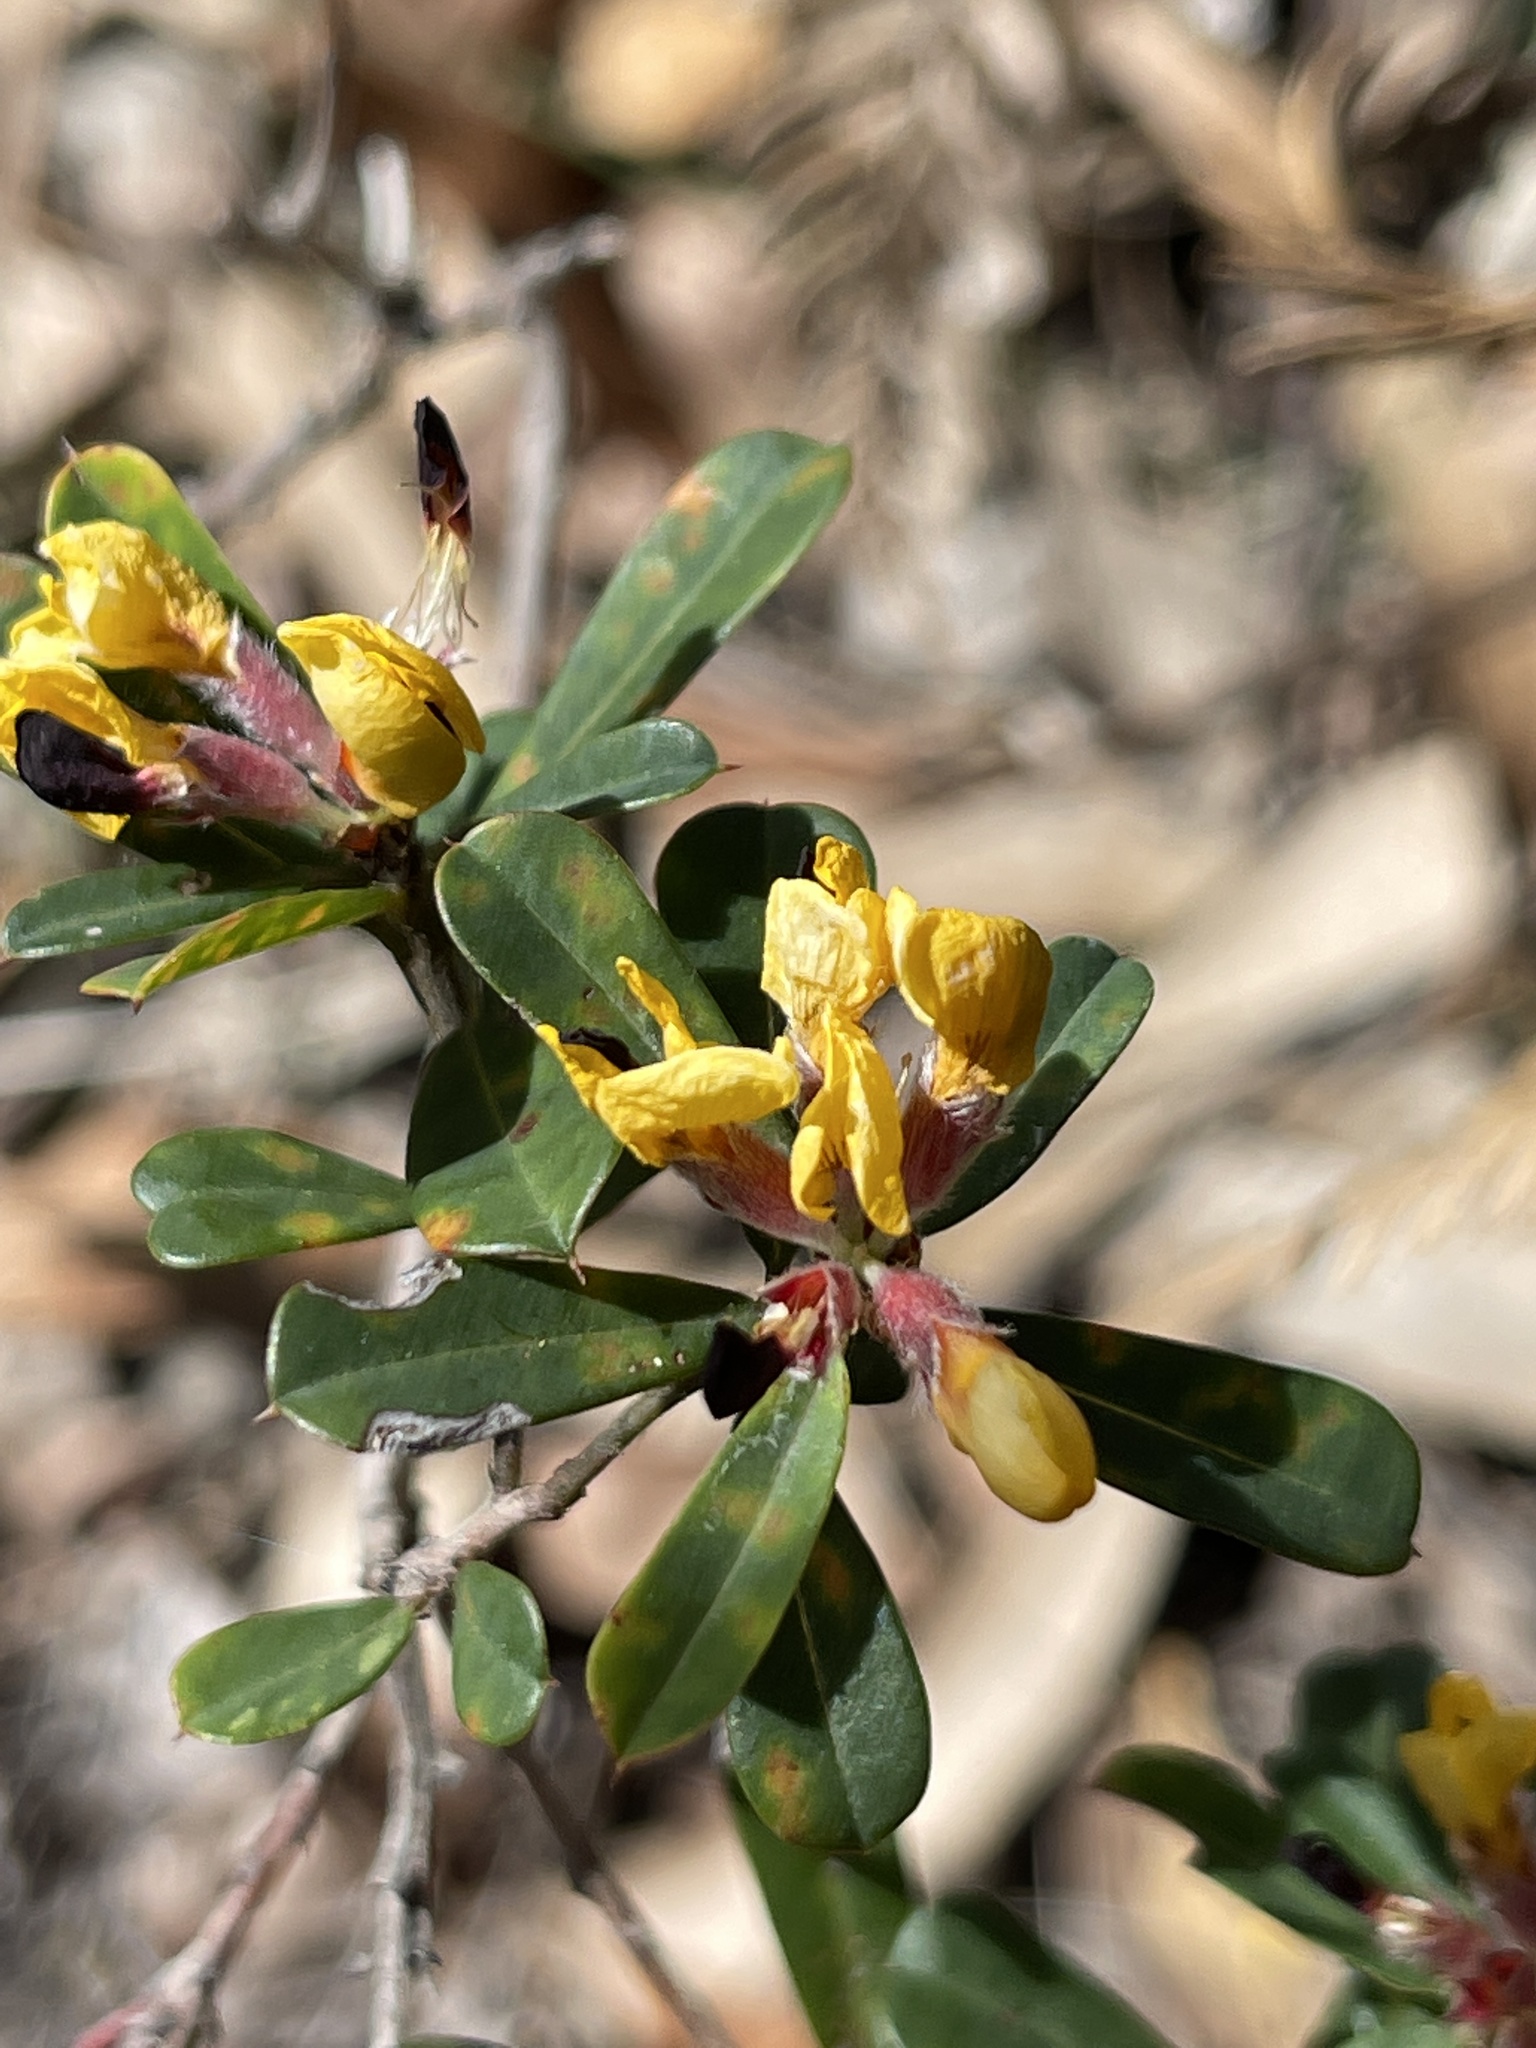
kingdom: Plantae
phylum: Tracheophyta
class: Magnoliopsida
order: Fabales
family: Fabaceae
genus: Pultenaea
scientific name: Pultenaea daphnoides
